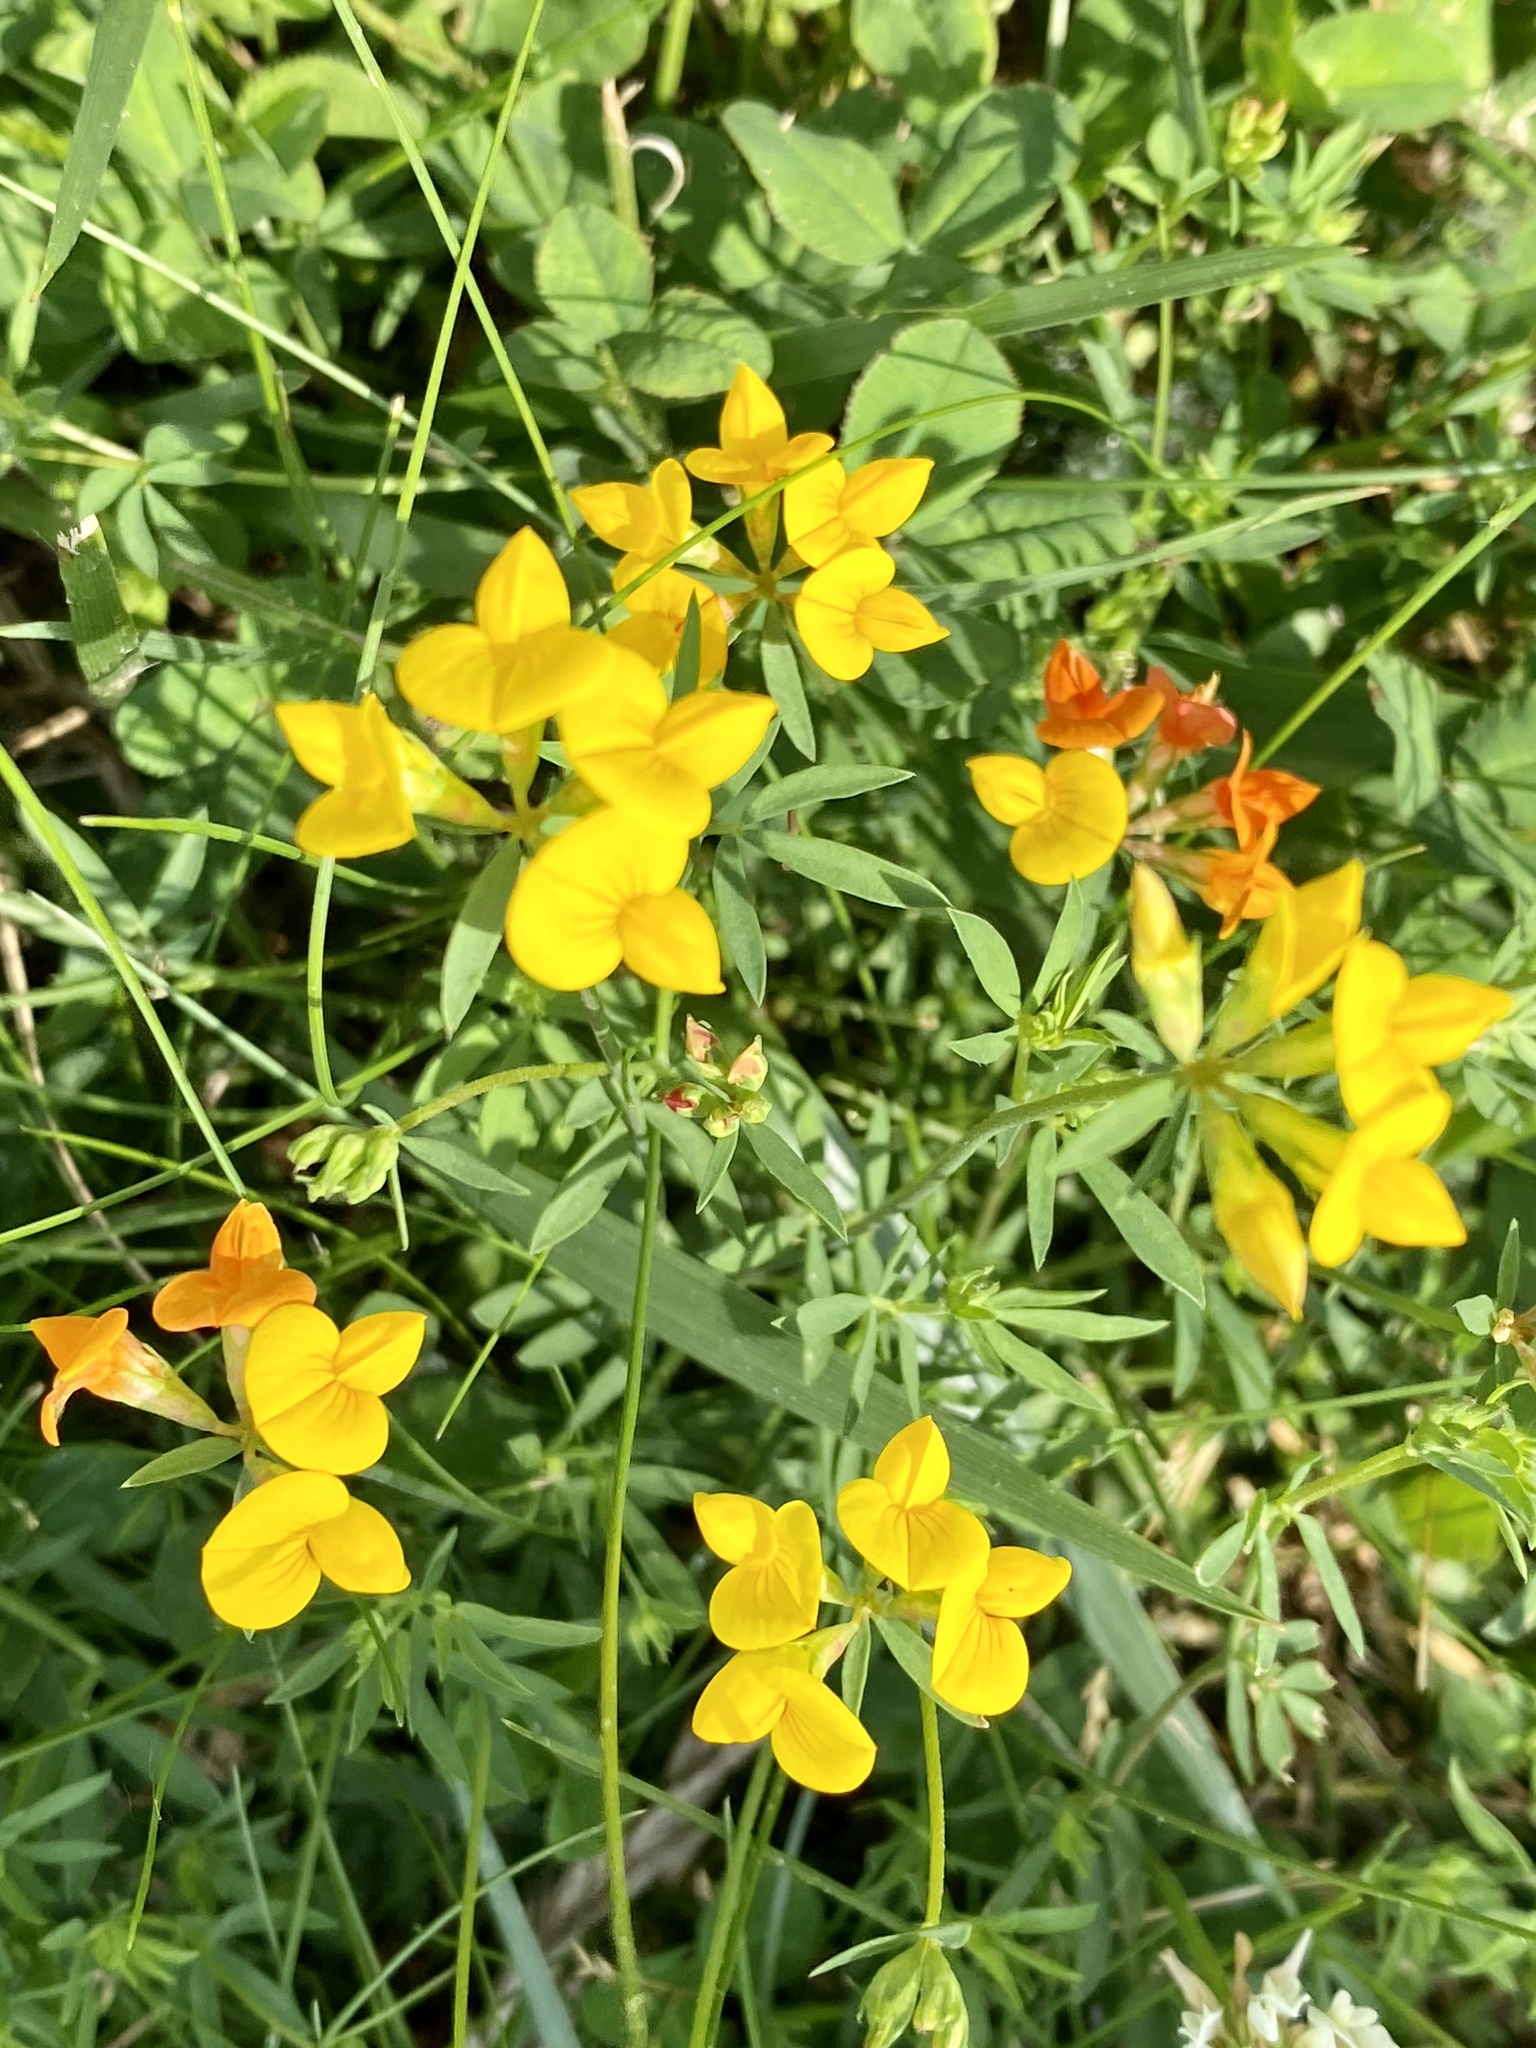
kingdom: Plantae
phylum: Tracheophyta
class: Magnoliopsida
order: Fabales
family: Fabaceae
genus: Lotus
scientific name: Lotus corniculatus
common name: Common bird's-foot-trefoil
